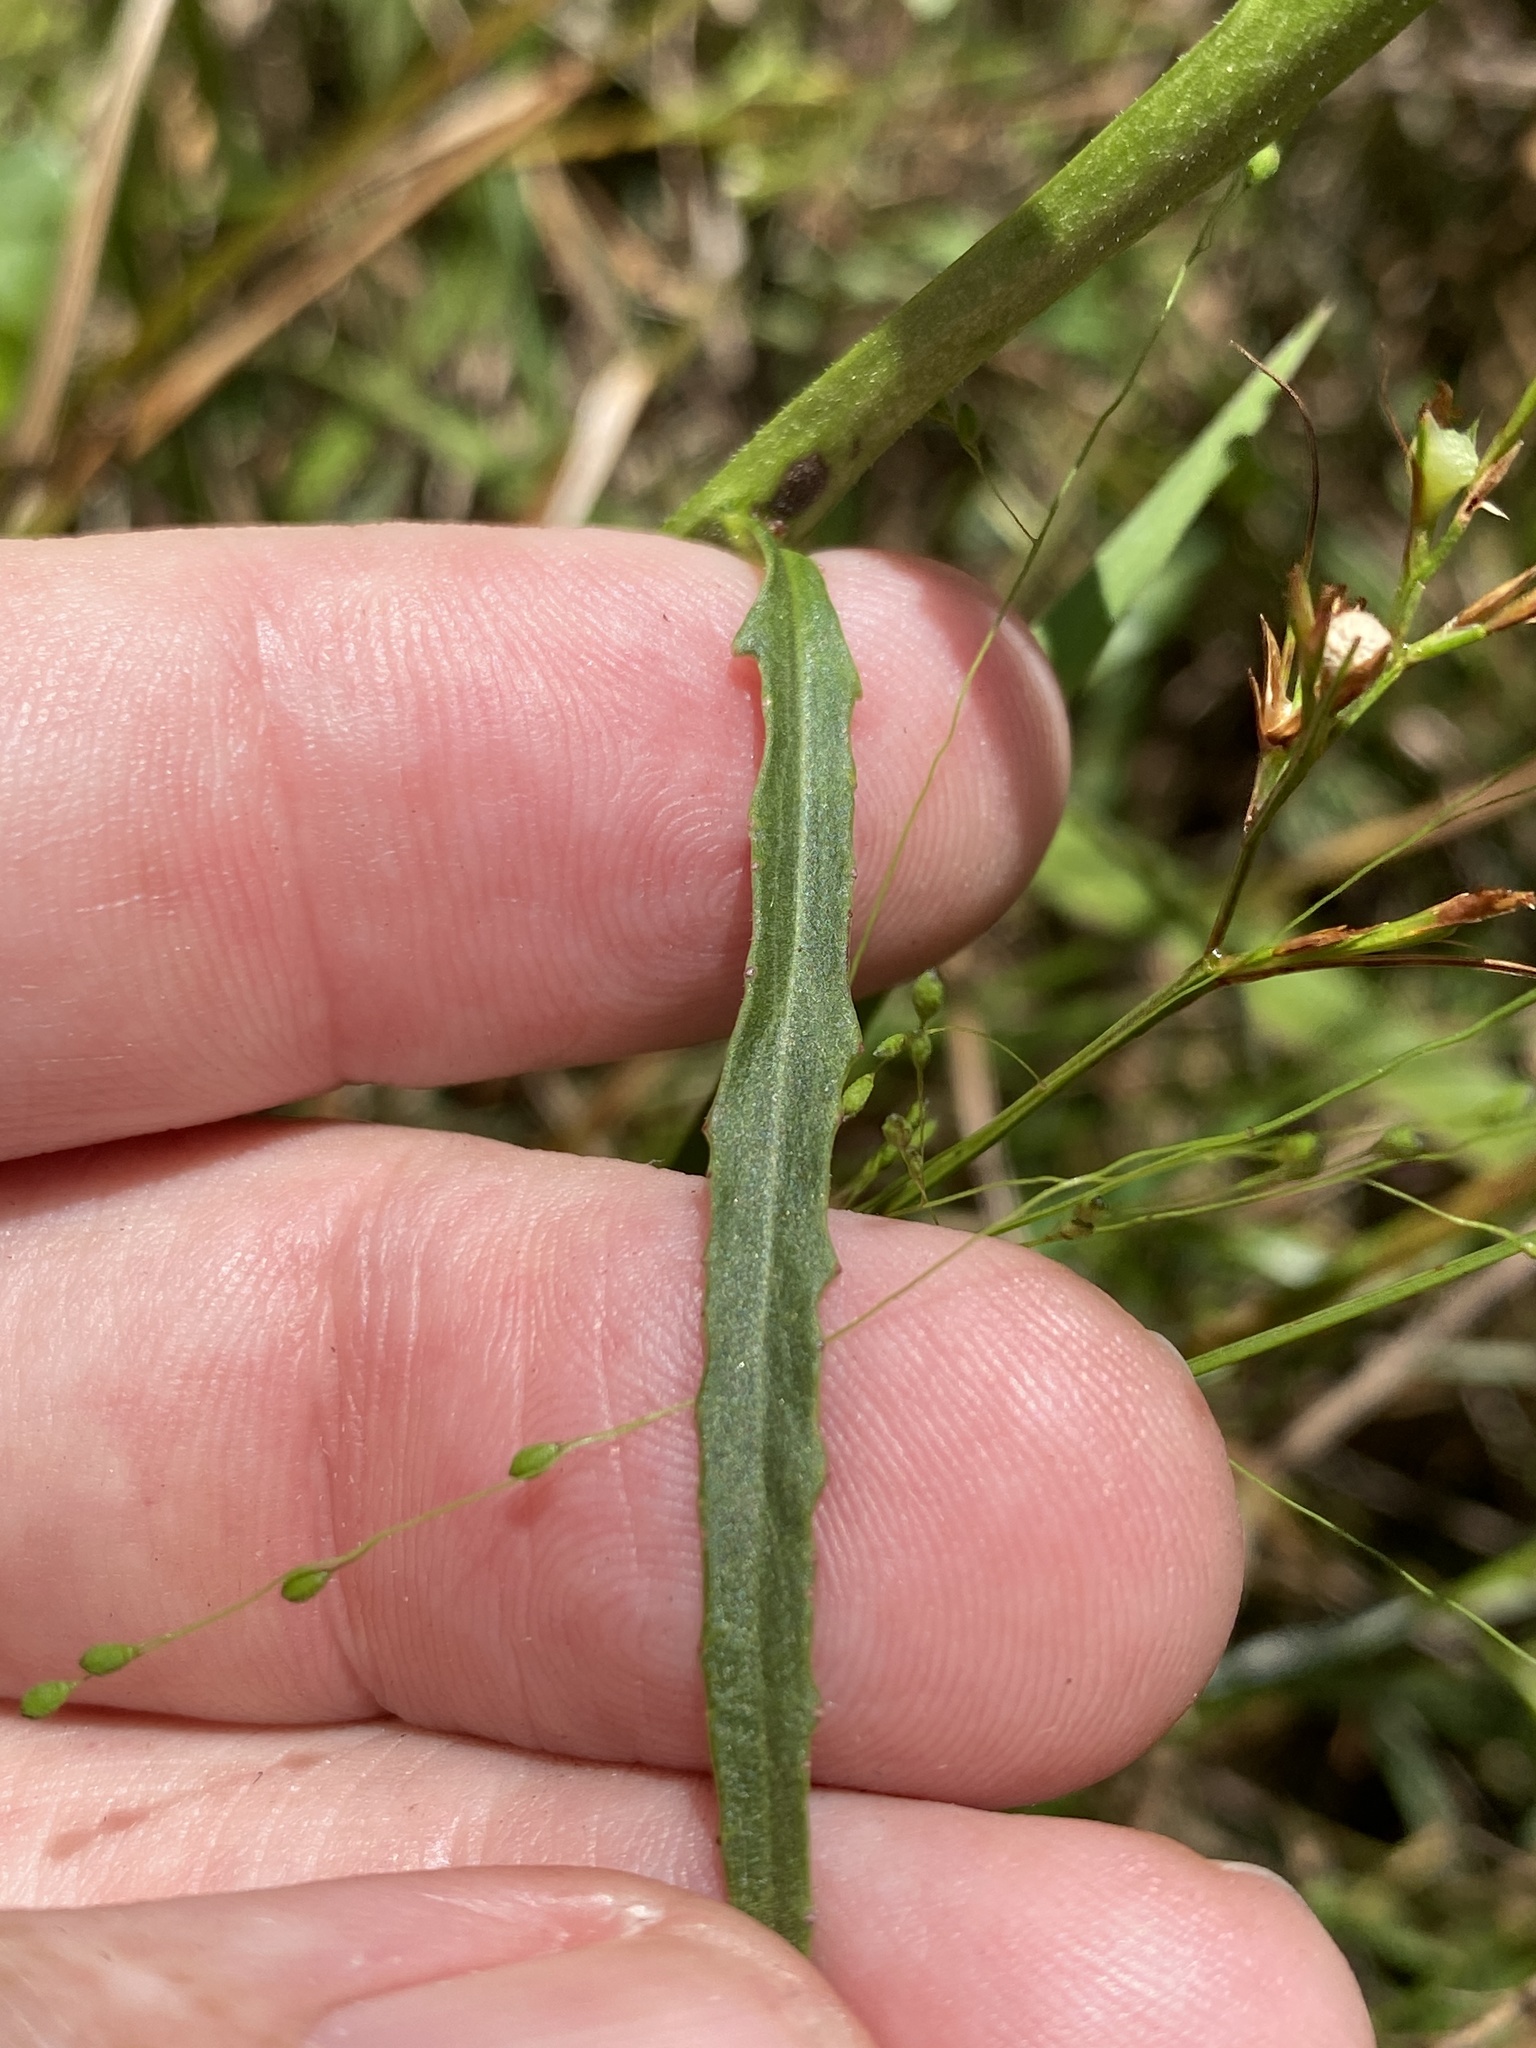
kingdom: Plantae
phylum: Tracheophyta
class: Magnoliopsida
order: Asterales
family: Campanulaceae
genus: Lobelia
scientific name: Lobelia batsonii
